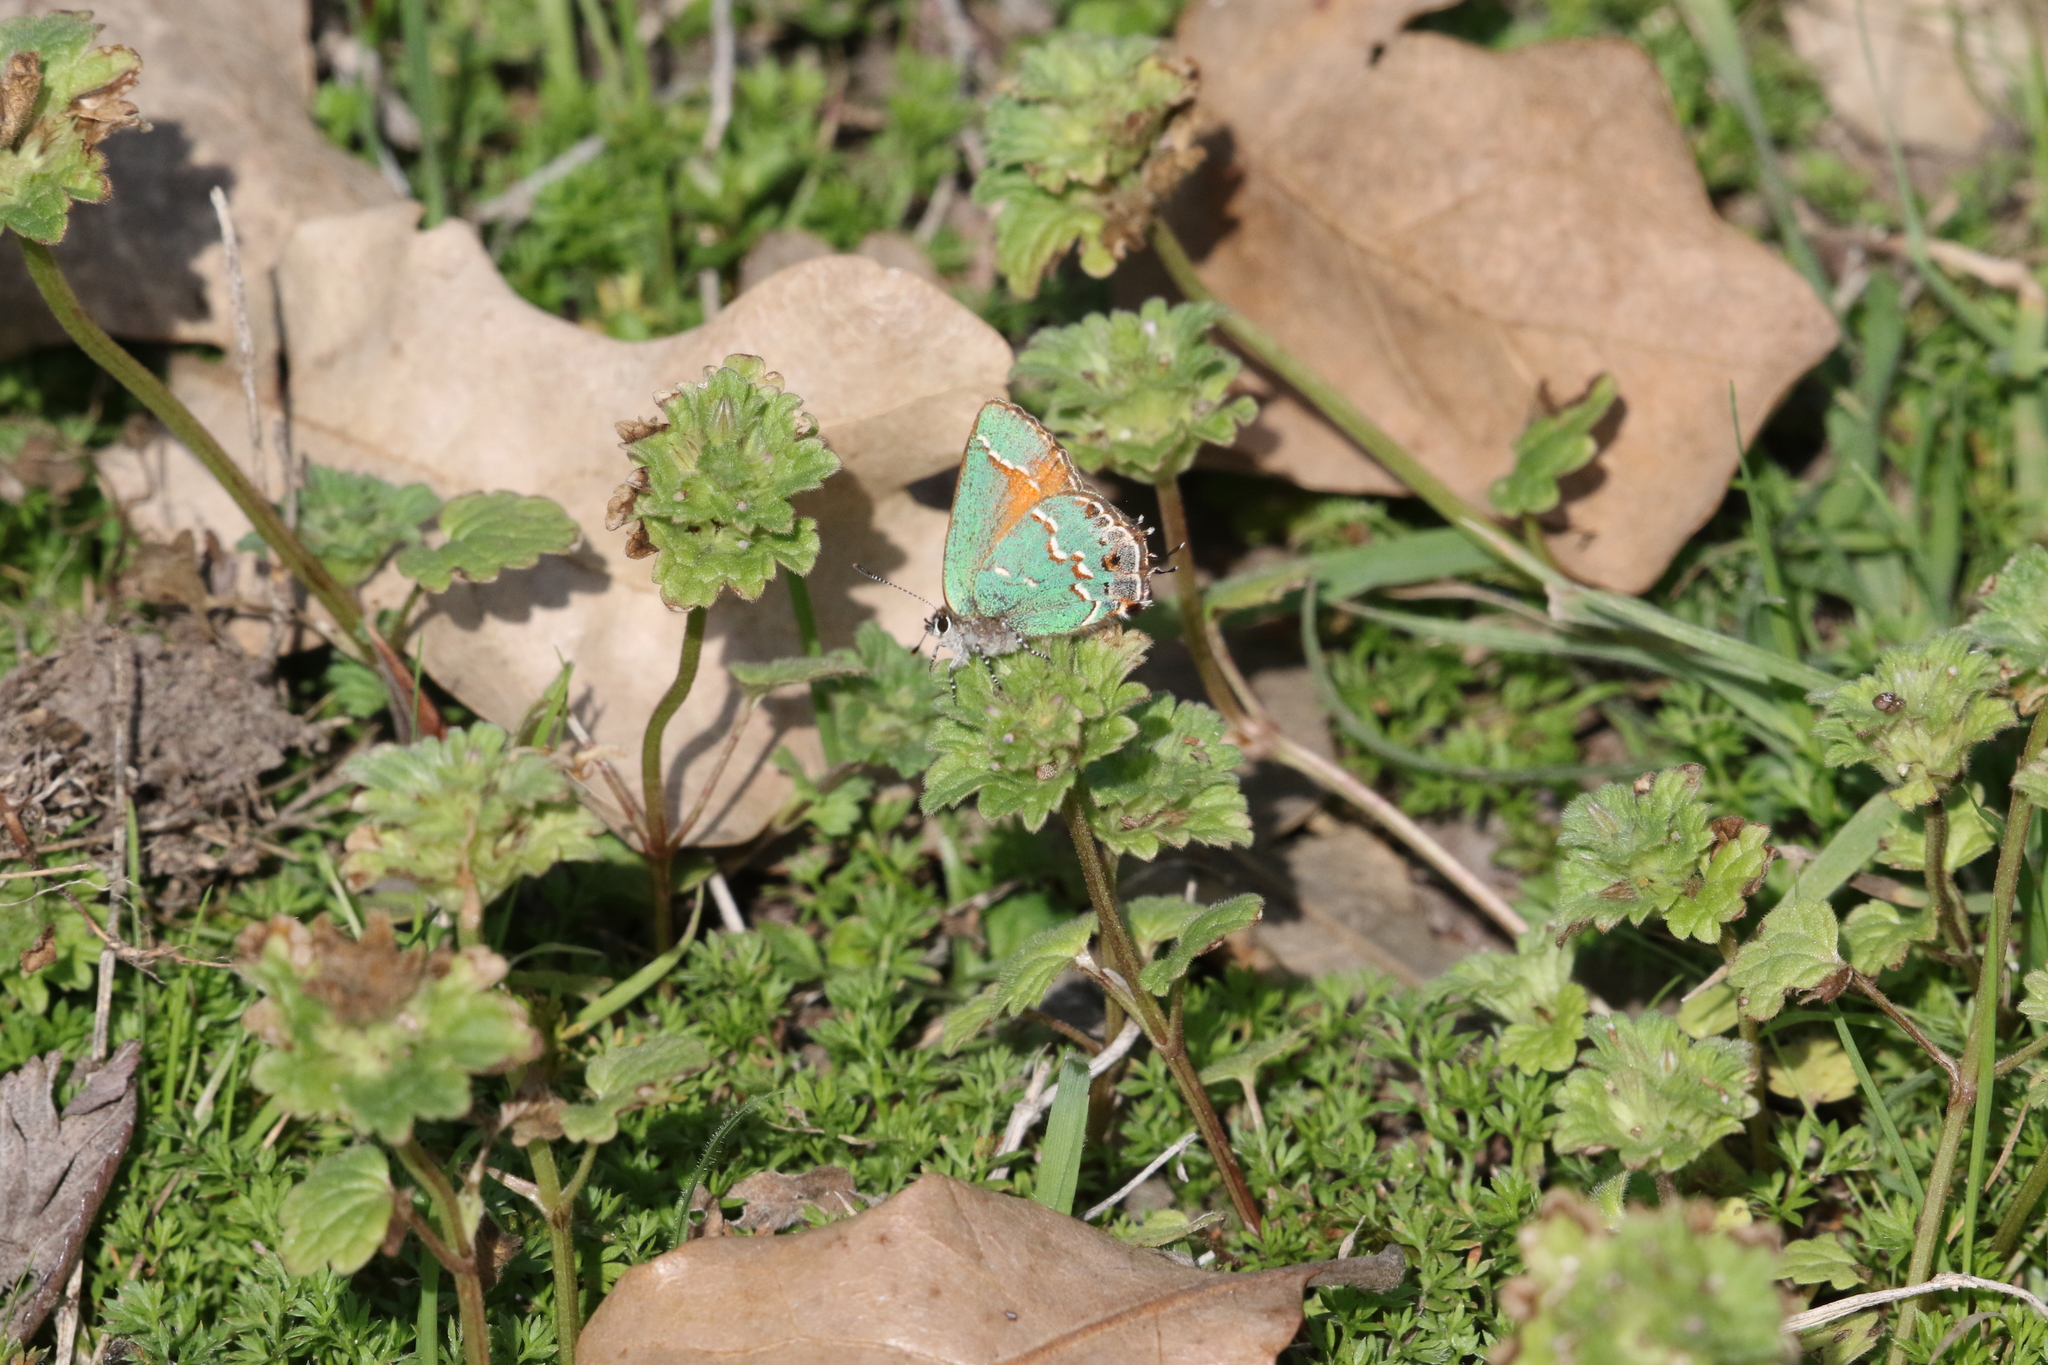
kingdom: Animalia
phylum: Arthropoda
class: Insecta
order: Lepidoptera
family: Lycaenidae
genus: Mitoura
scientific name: Mitoura gryneus
